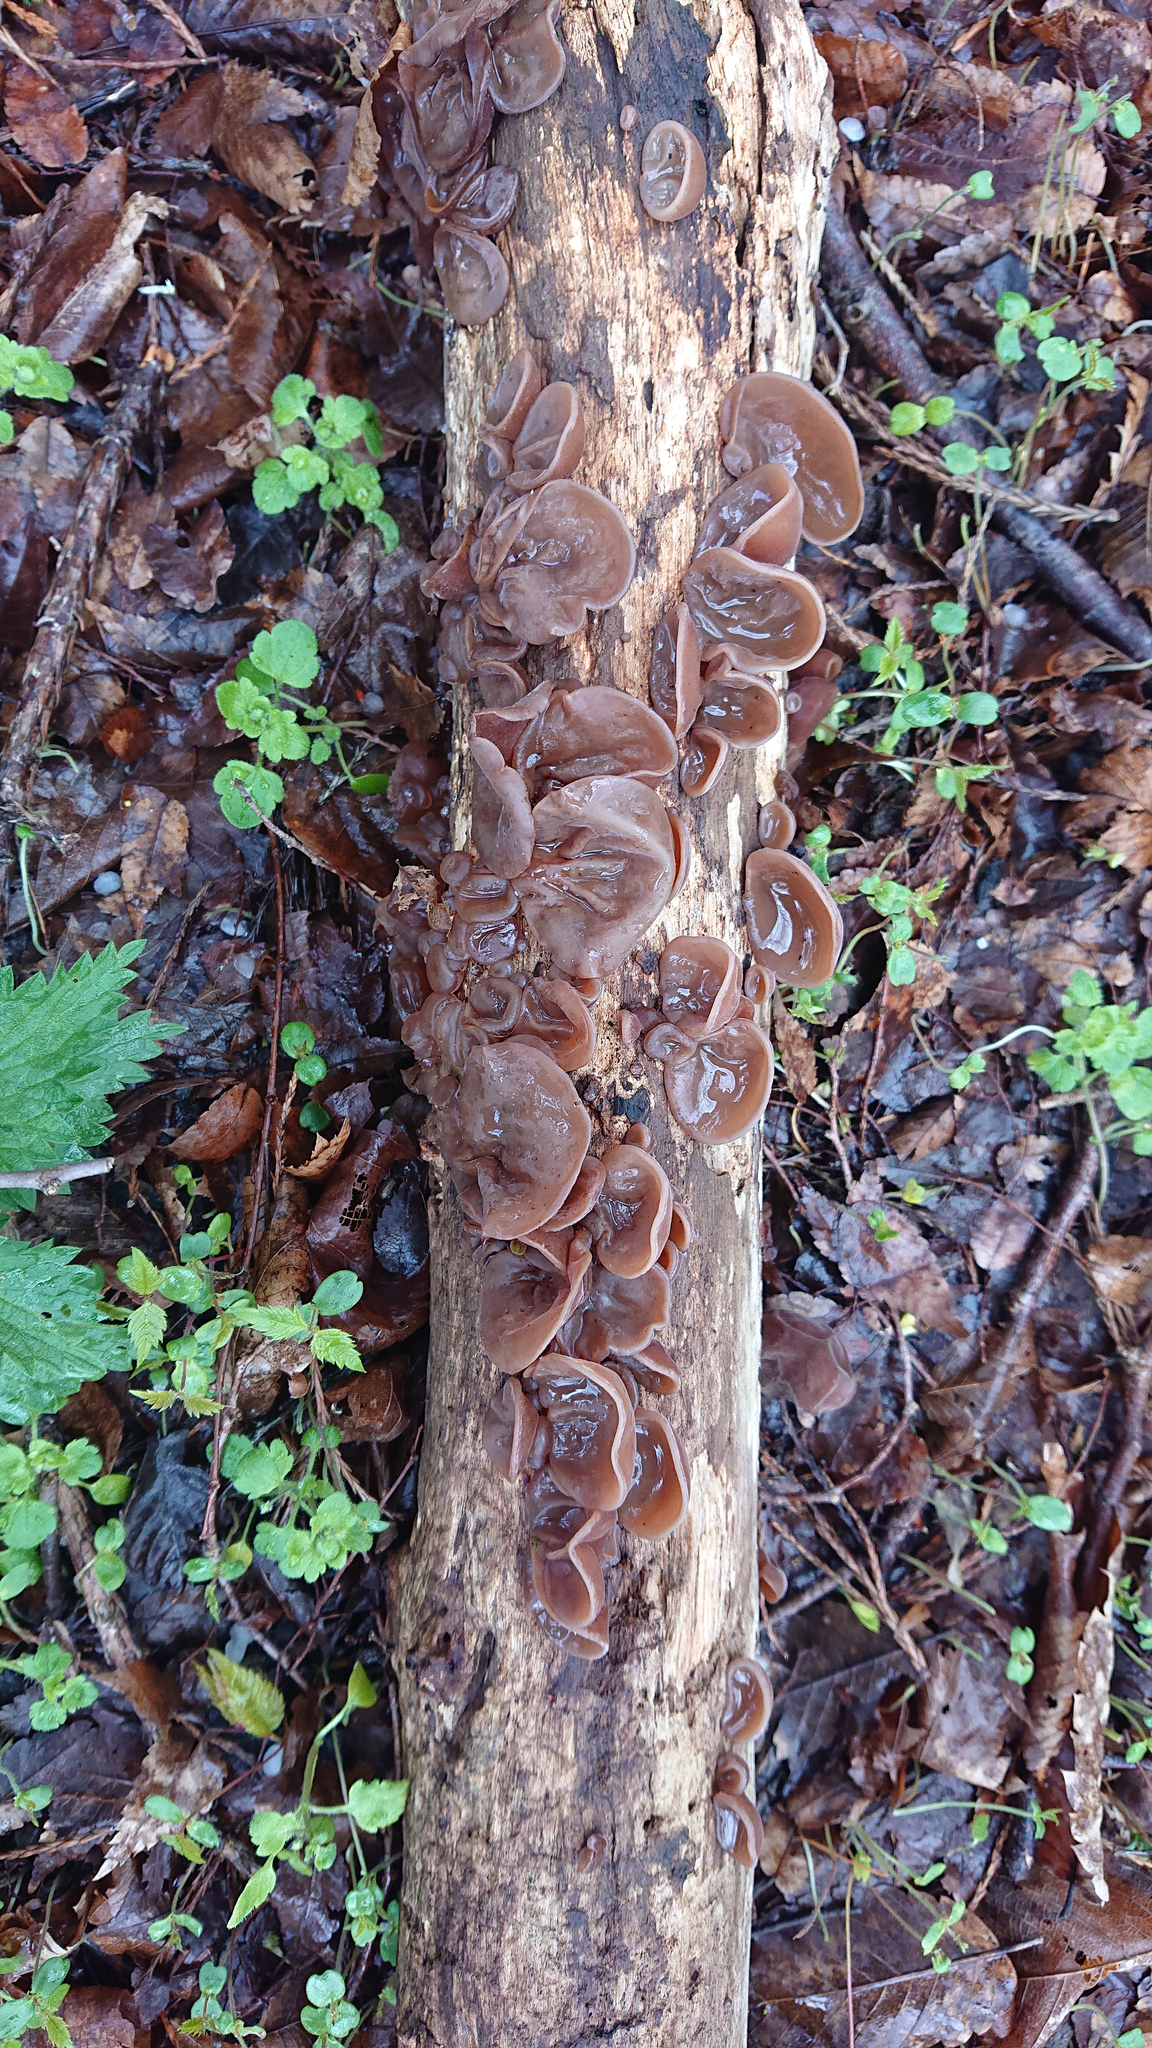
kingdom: Fungi
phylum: Basidiomycota
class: Agaricomycetes
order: Auriculariales
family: Auriculariaceae
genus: Auricularia
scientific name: Auricularia auricula-judae
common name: Jelly ear
